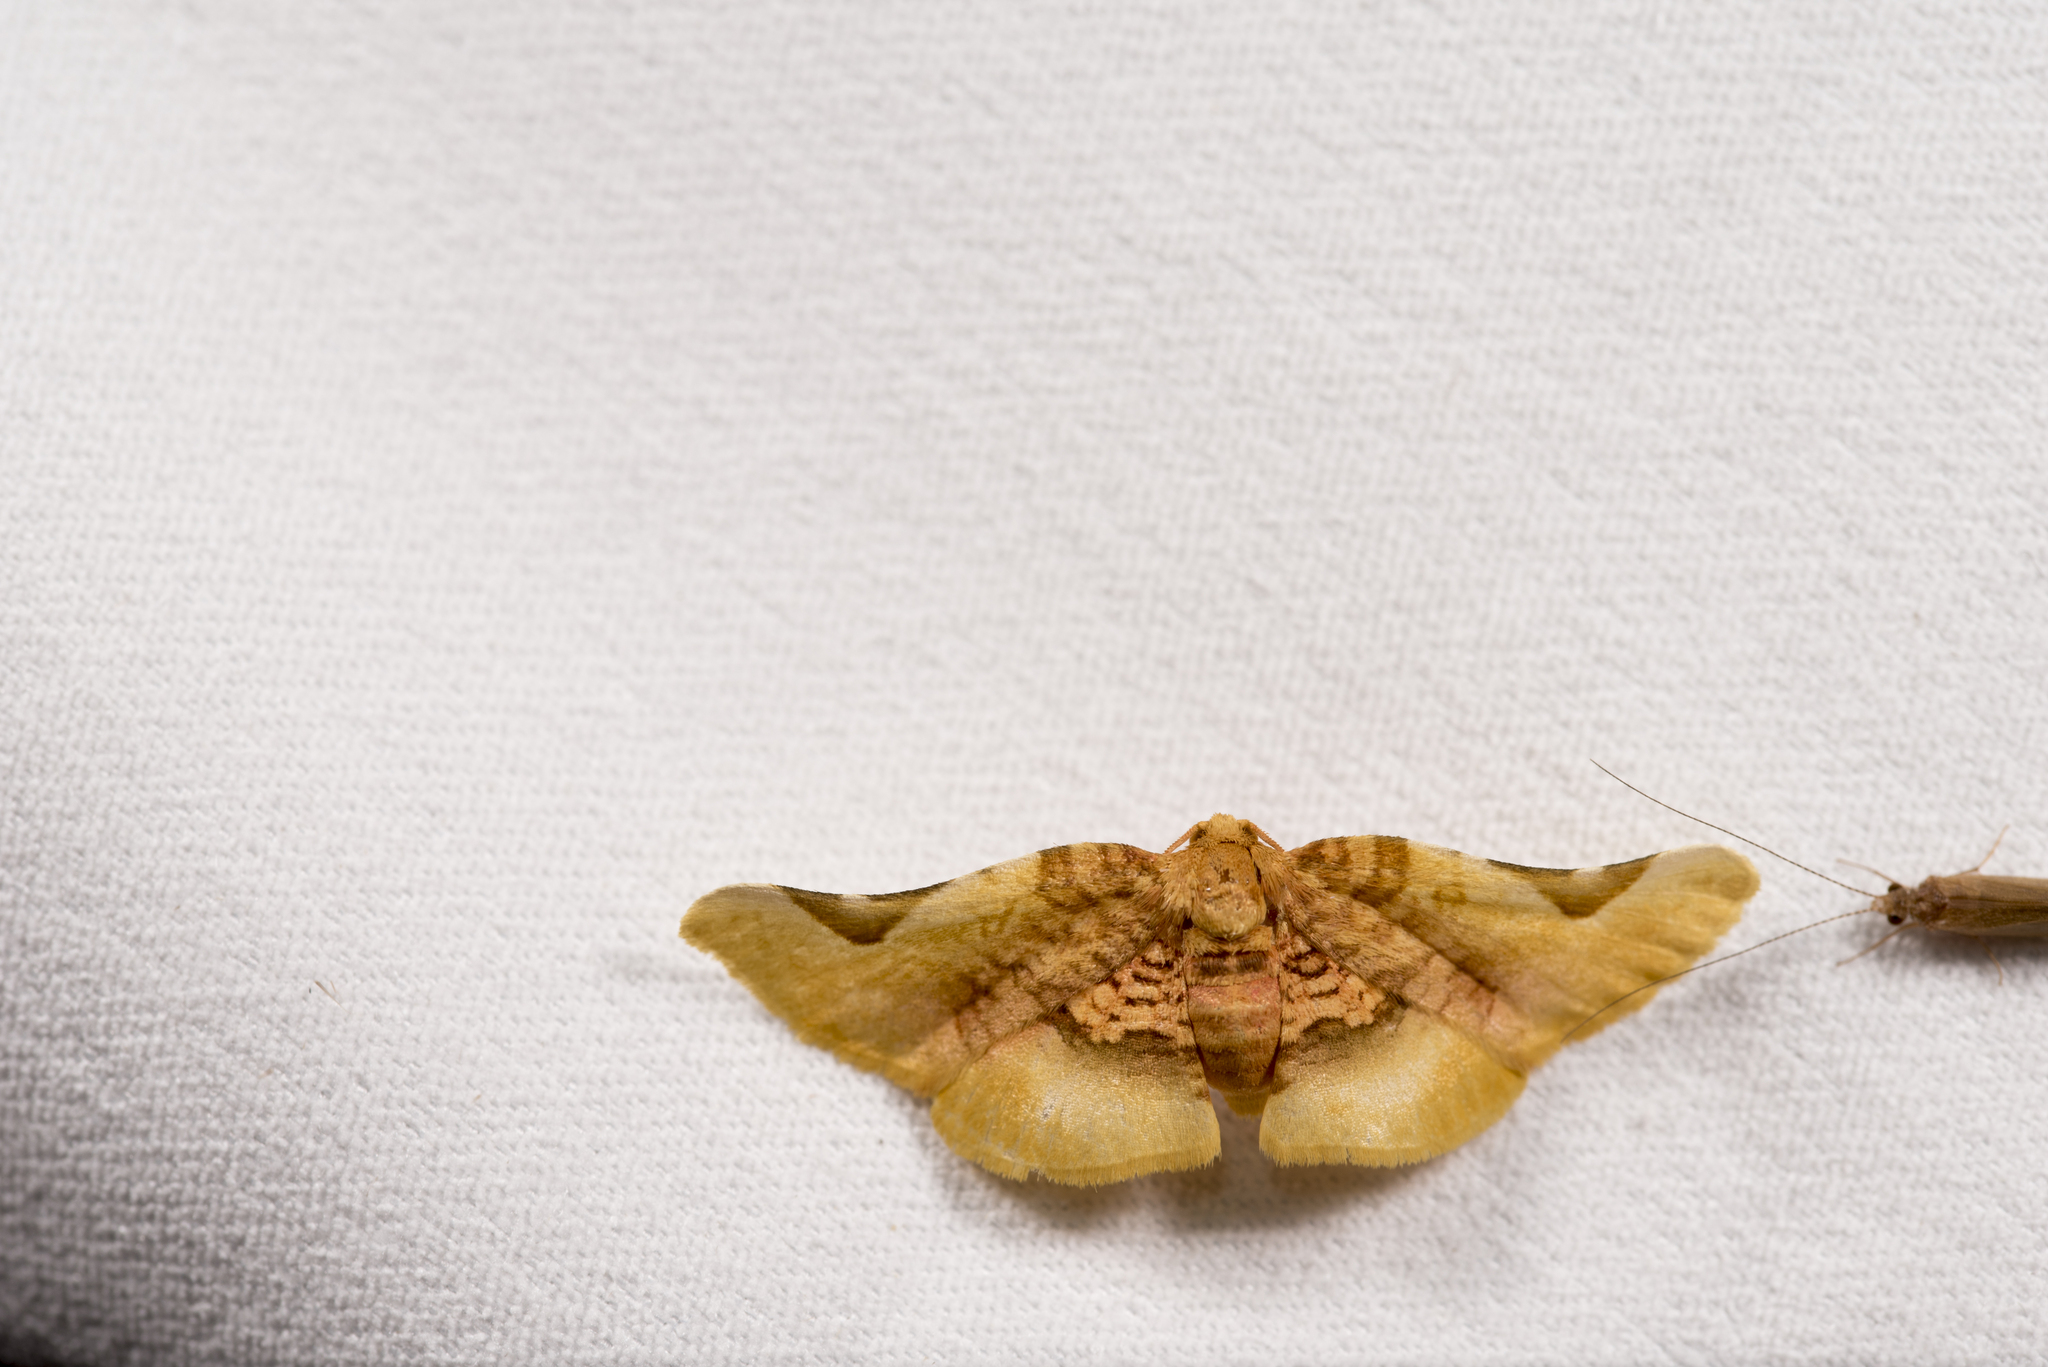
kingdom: Animalia
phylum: Arthropoda
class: Insecta
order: Lepidoptera
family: Thyrididae
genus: Pyrinioides
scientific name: Pyrinioides sinuosa
